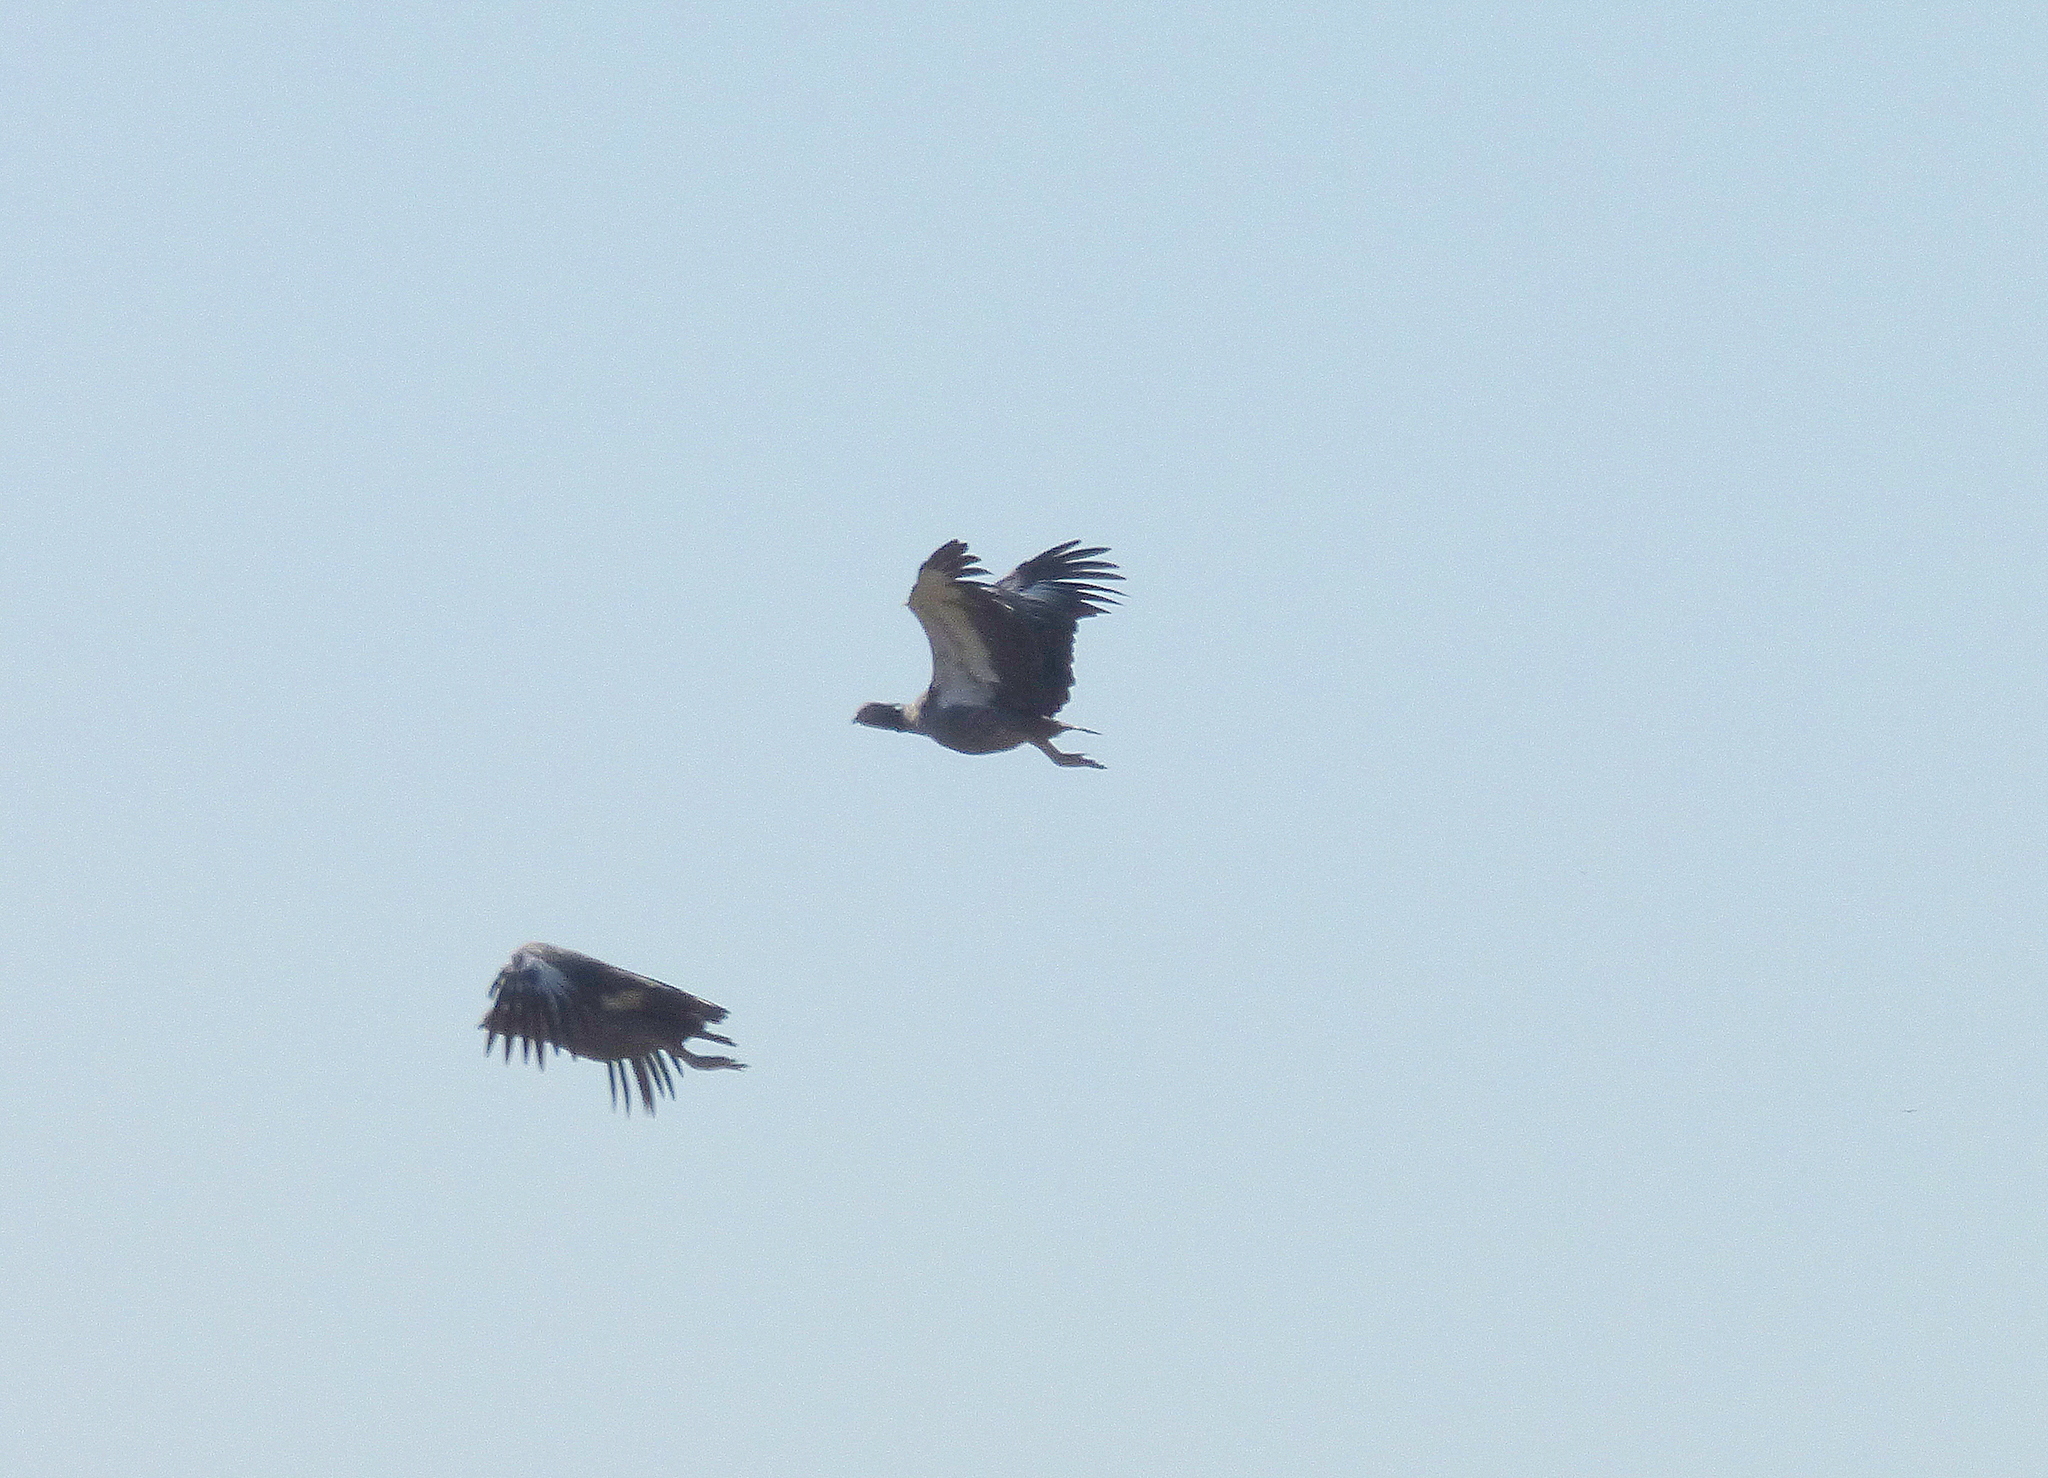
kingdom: Animalia
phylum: Chordata
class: Aves
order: Anseriformes
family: Anhimidae
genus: Chauna
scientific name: Chauna torquata
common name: Southern screamer
